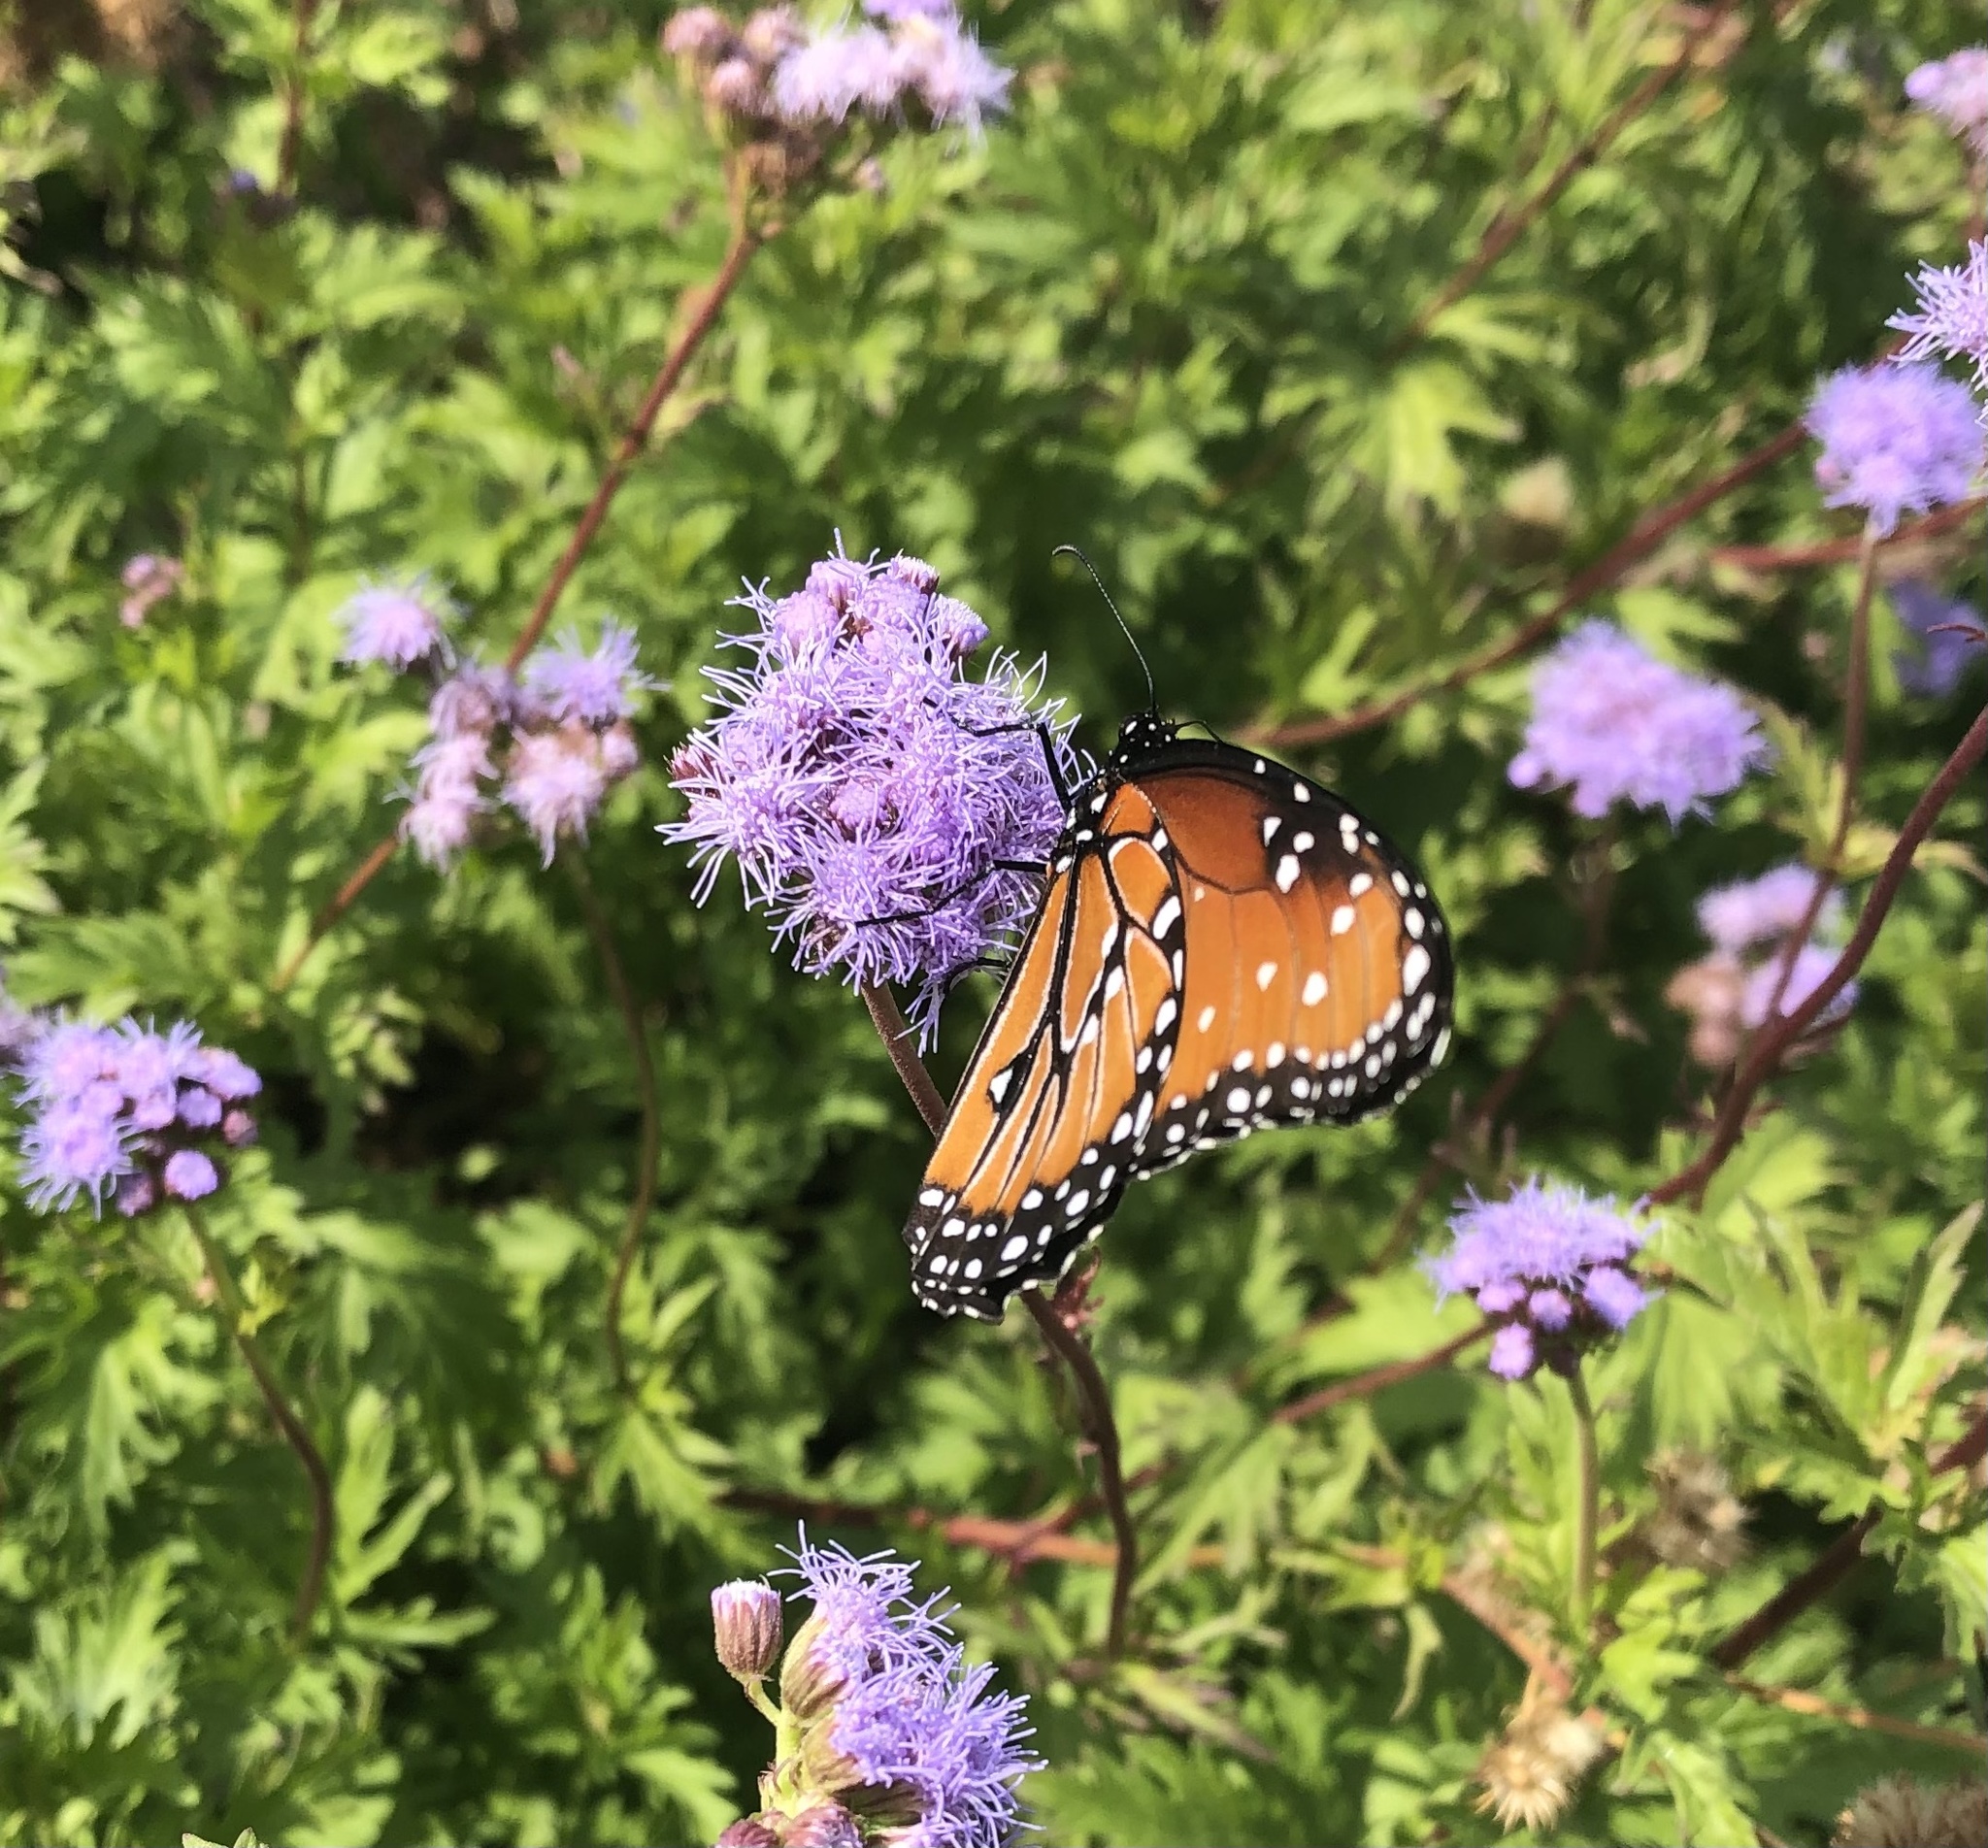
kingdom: Animalia
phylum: Arthropoda
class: Insecta
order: Lepidoptera
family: Nymphalidae
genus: Danaus
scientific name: Danaus gilippus
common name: Queen
